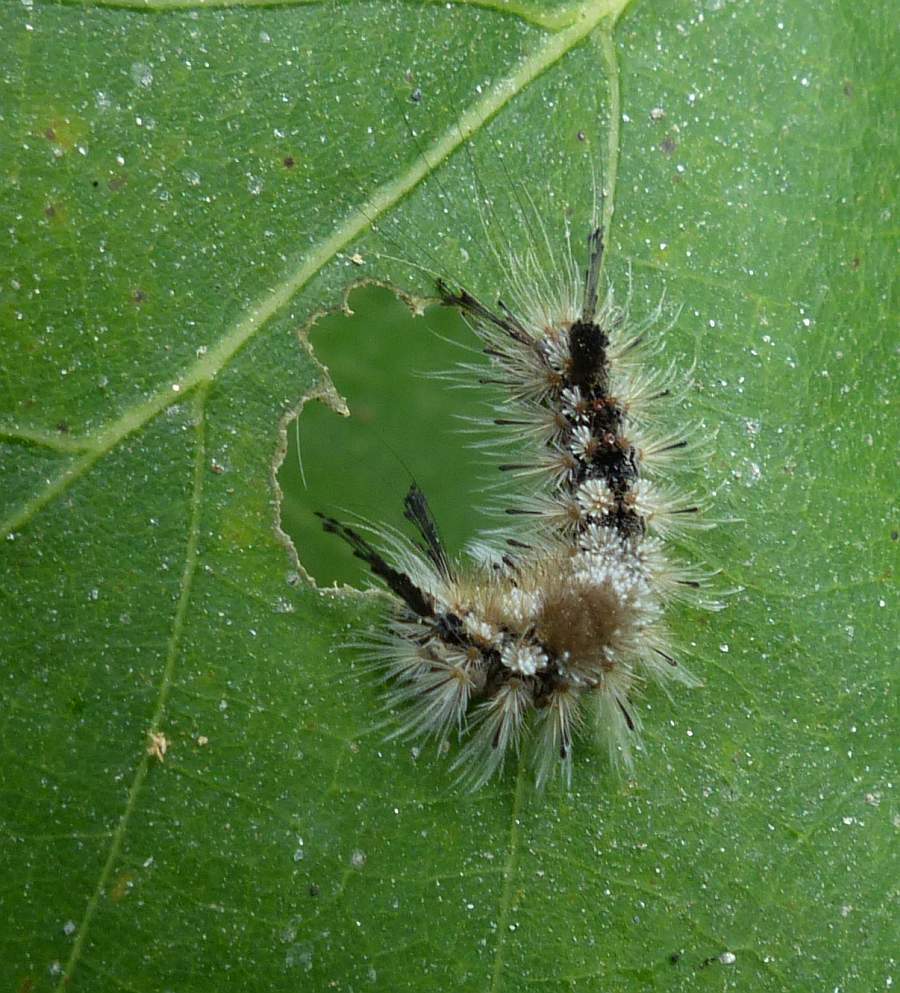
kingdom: Animalia
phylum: Arthropoda
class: Insecta
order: Lepidoptera
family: Erebidae
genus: Dasychira
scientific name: Dasychira vagans
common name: Variable tussock moth
